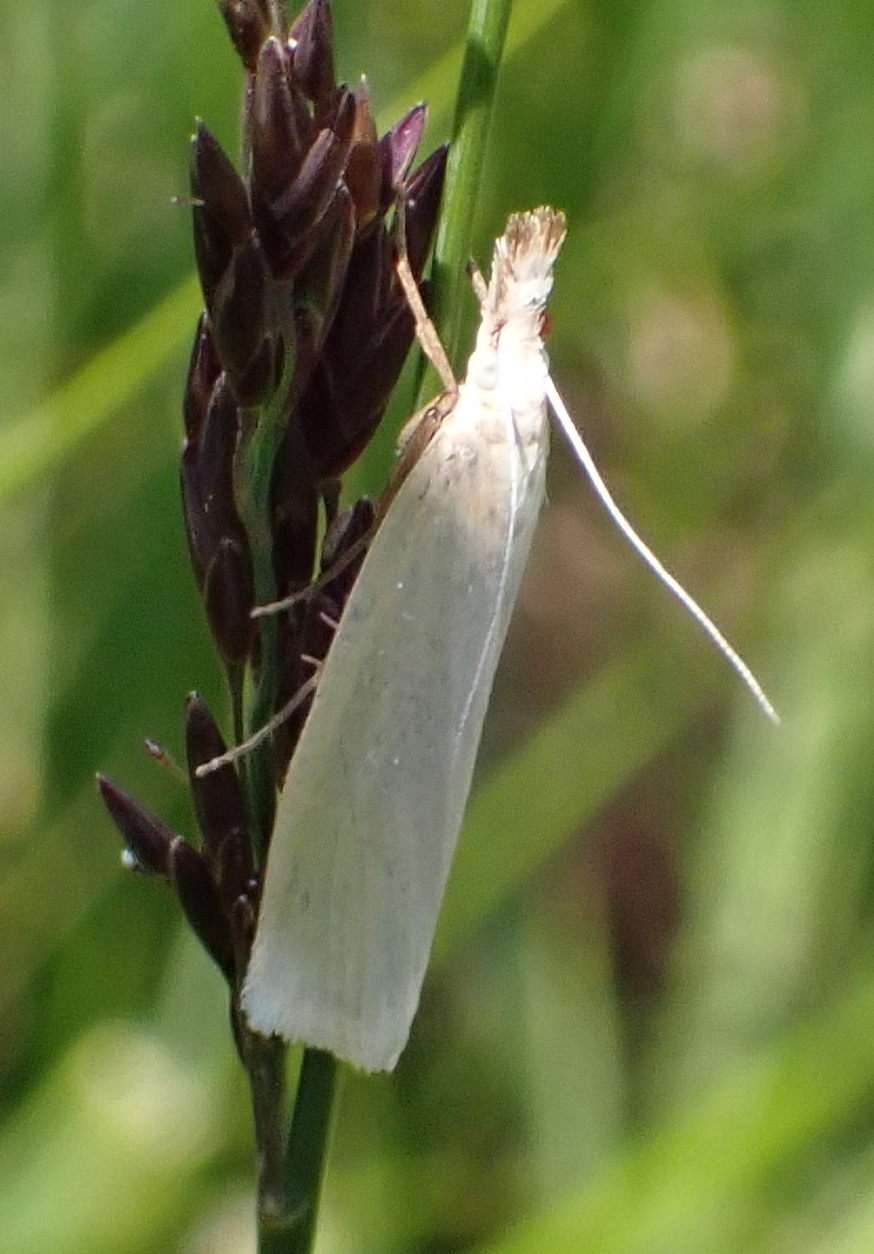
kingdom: Animalia
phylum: Arthropoda
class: Insecta
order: Lepidoptera
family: Crambidae
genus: Crambus
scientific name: Crambus perlellus
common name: Yellow satin veneer
